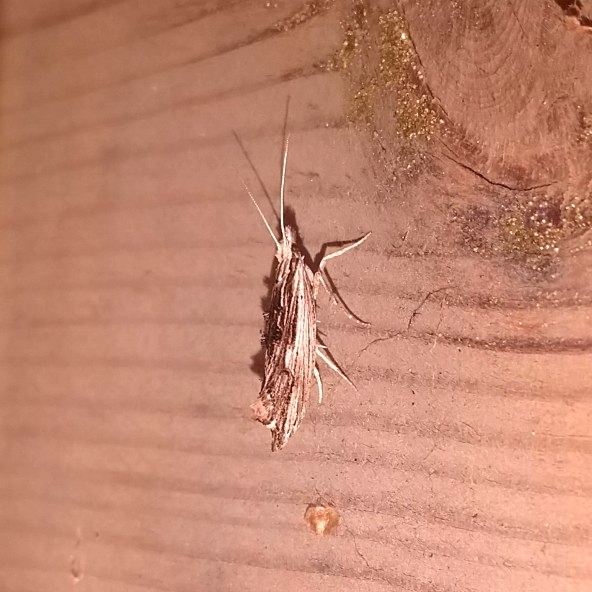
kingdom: Animalia
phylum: Arthropoda
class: Insecta
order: Lepidoptera
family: Ypsolophidae
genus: Ypsolopha
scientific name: Ypsolopha scabrella
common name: Wainscot smudge
